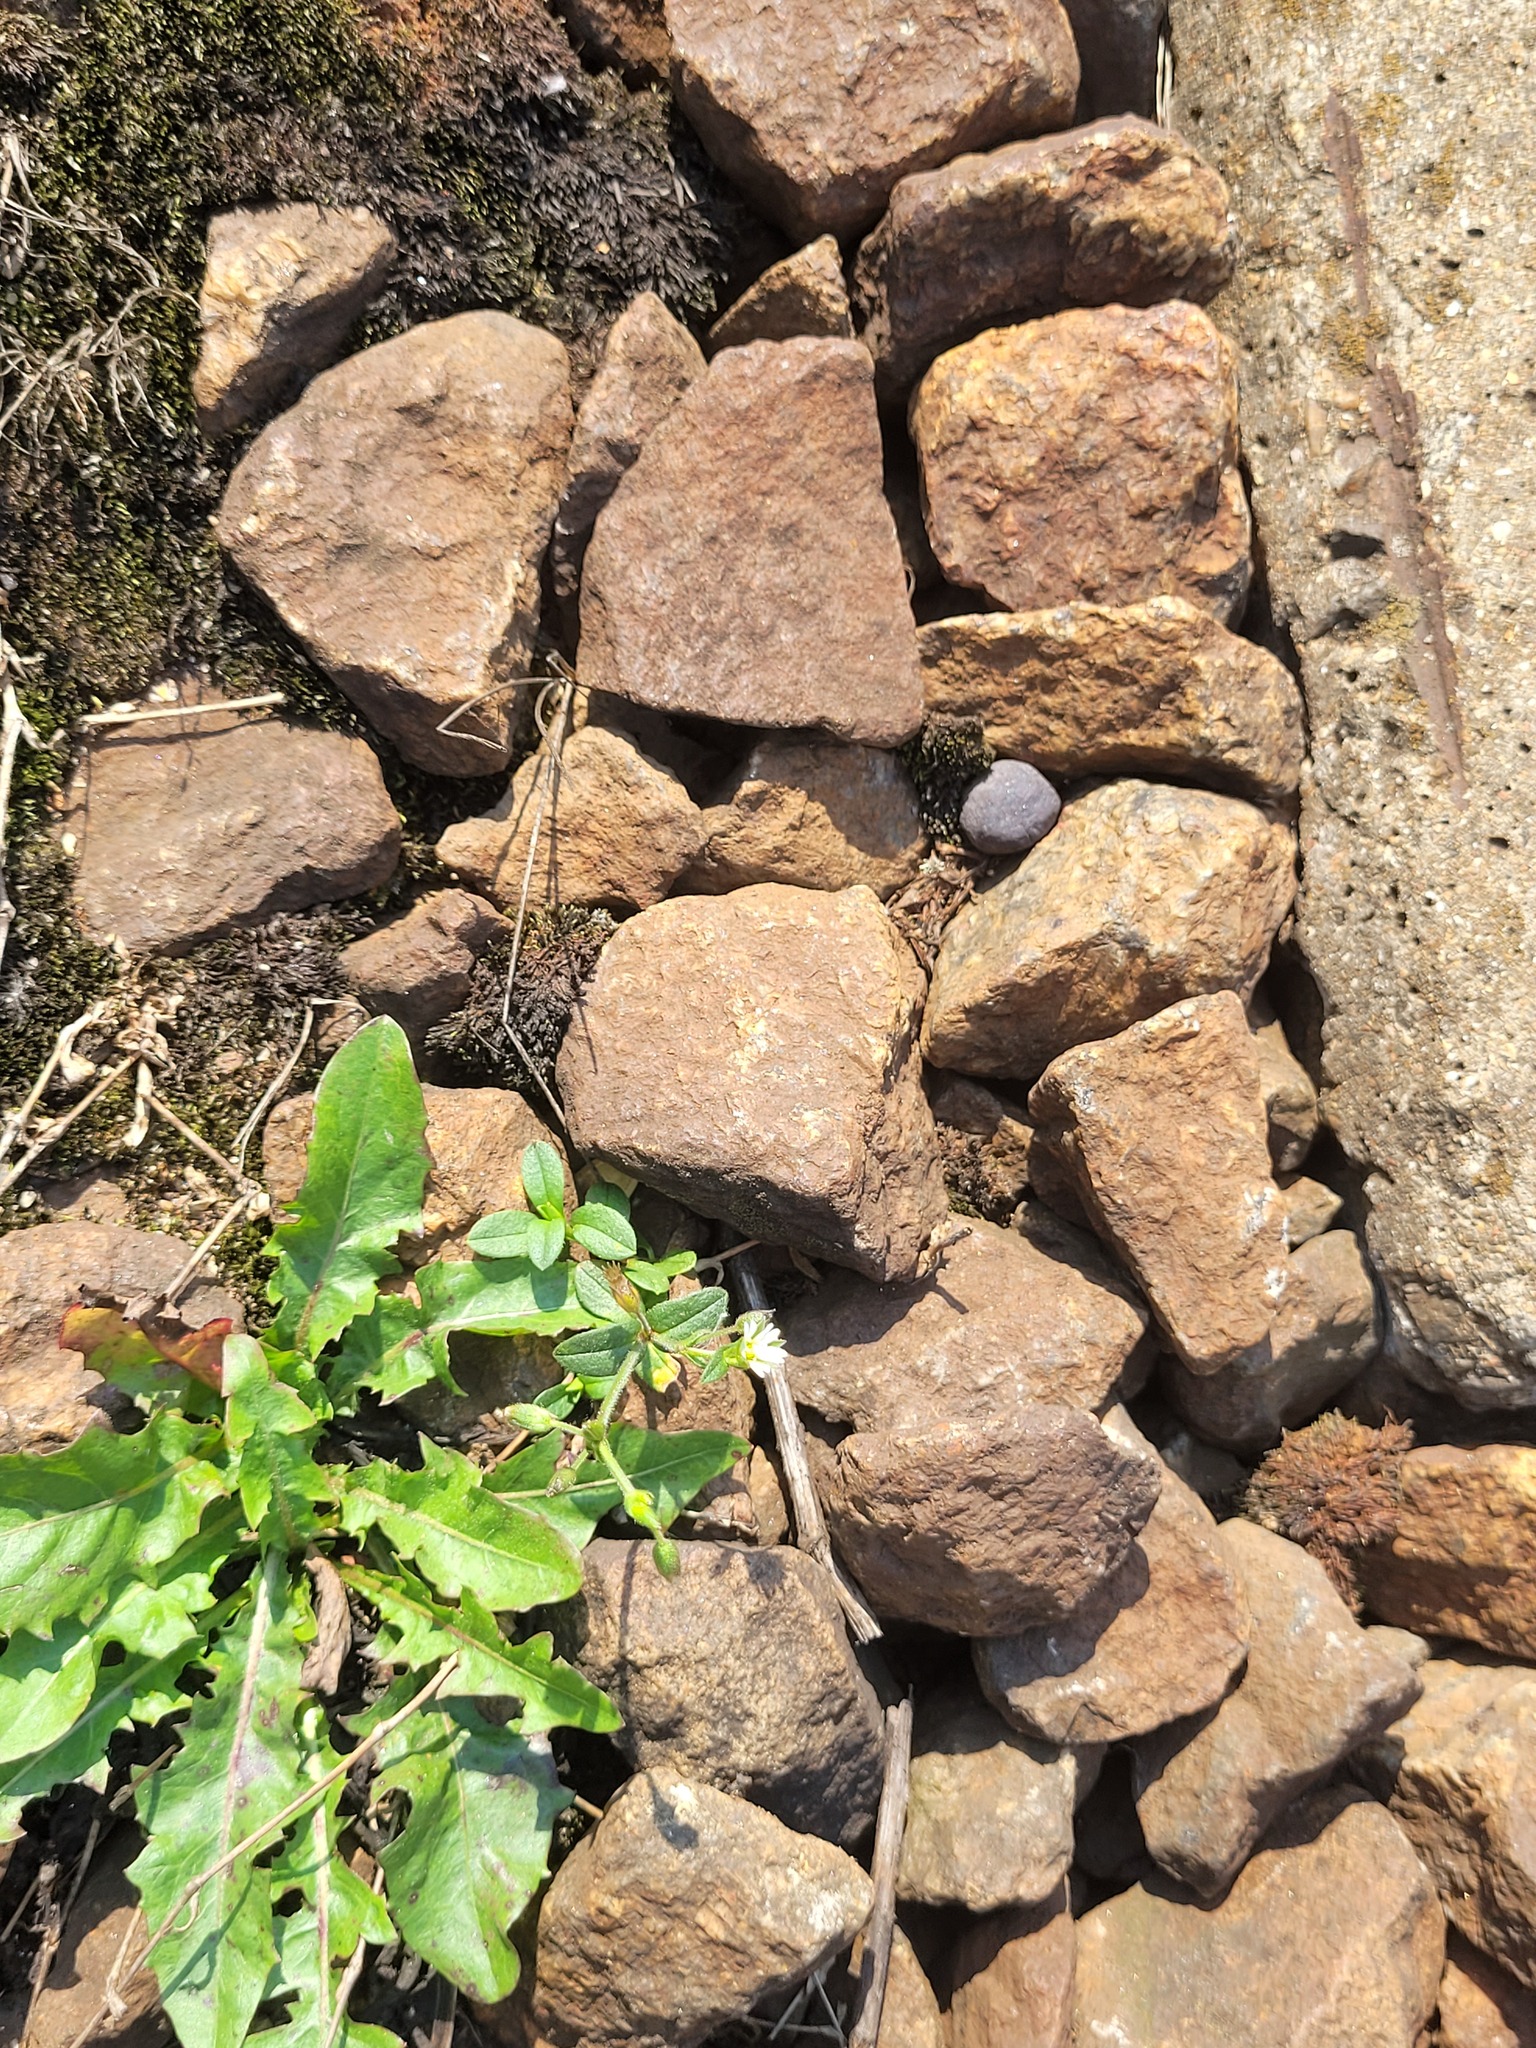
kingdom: Plantae
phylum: Tracheophyta
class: Magnoliopsida
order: Caryophyllales
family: Caryophyllaceae
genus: Cerastium
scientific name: Cerastium holosteoides
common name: Big chickweed
